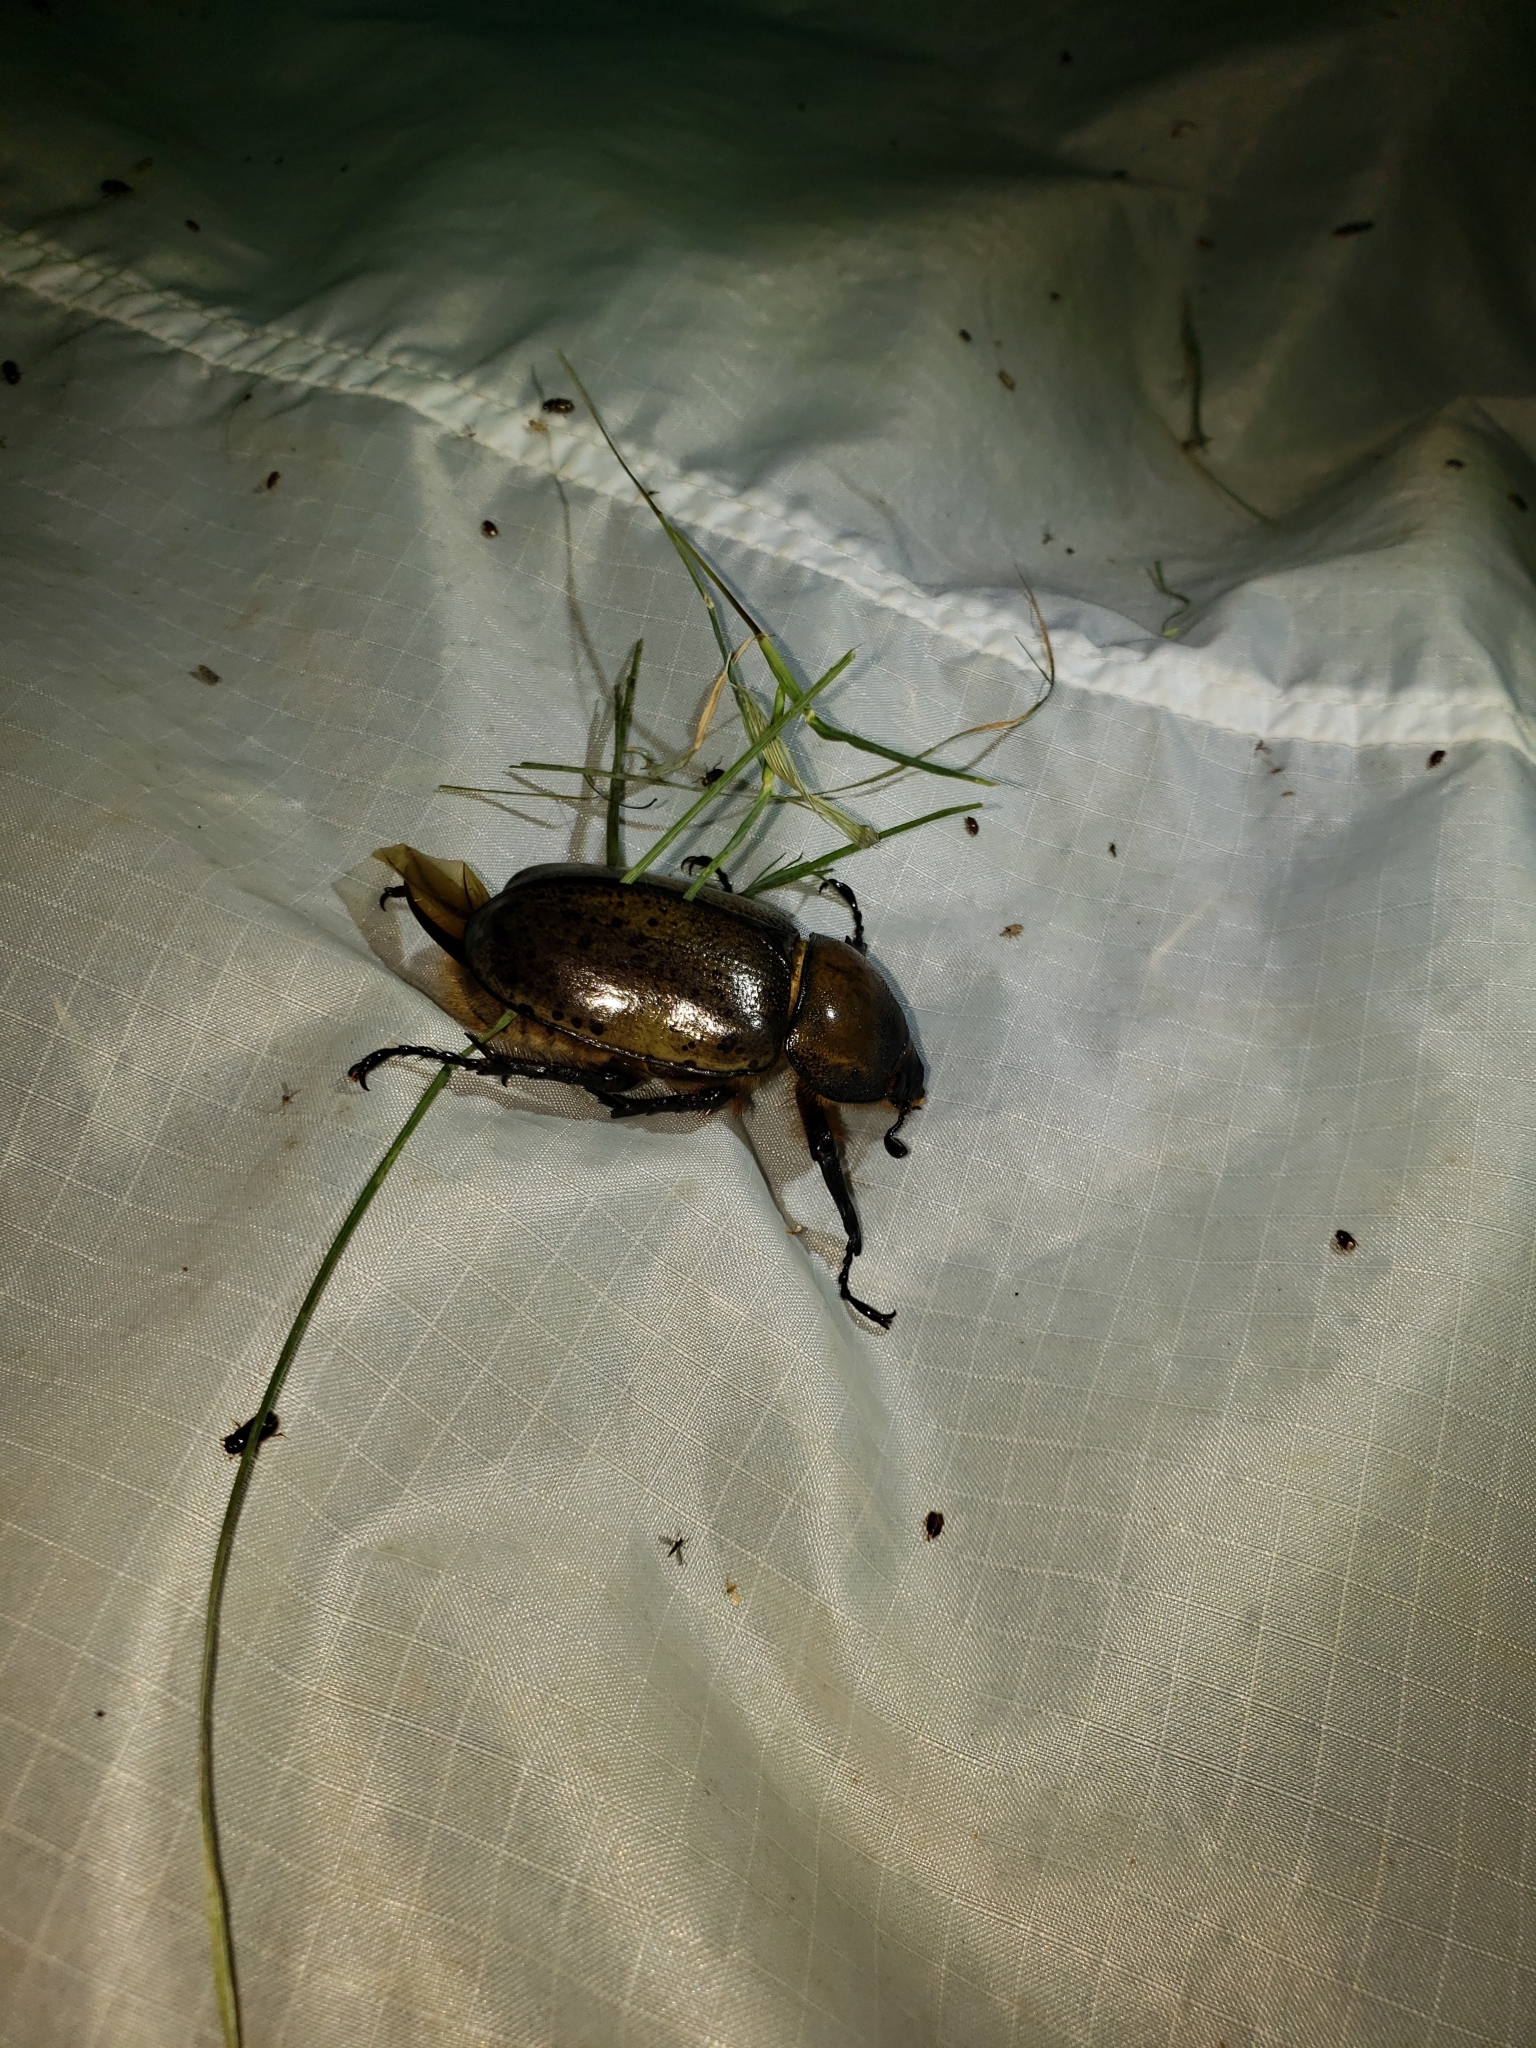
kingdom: Animalia
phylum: Arthropoda
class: Insecta
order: Coleoptera
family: Scarabaeidae
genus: Dynastes
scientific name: Dynastes tityus
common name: Eastern hercules beetle
